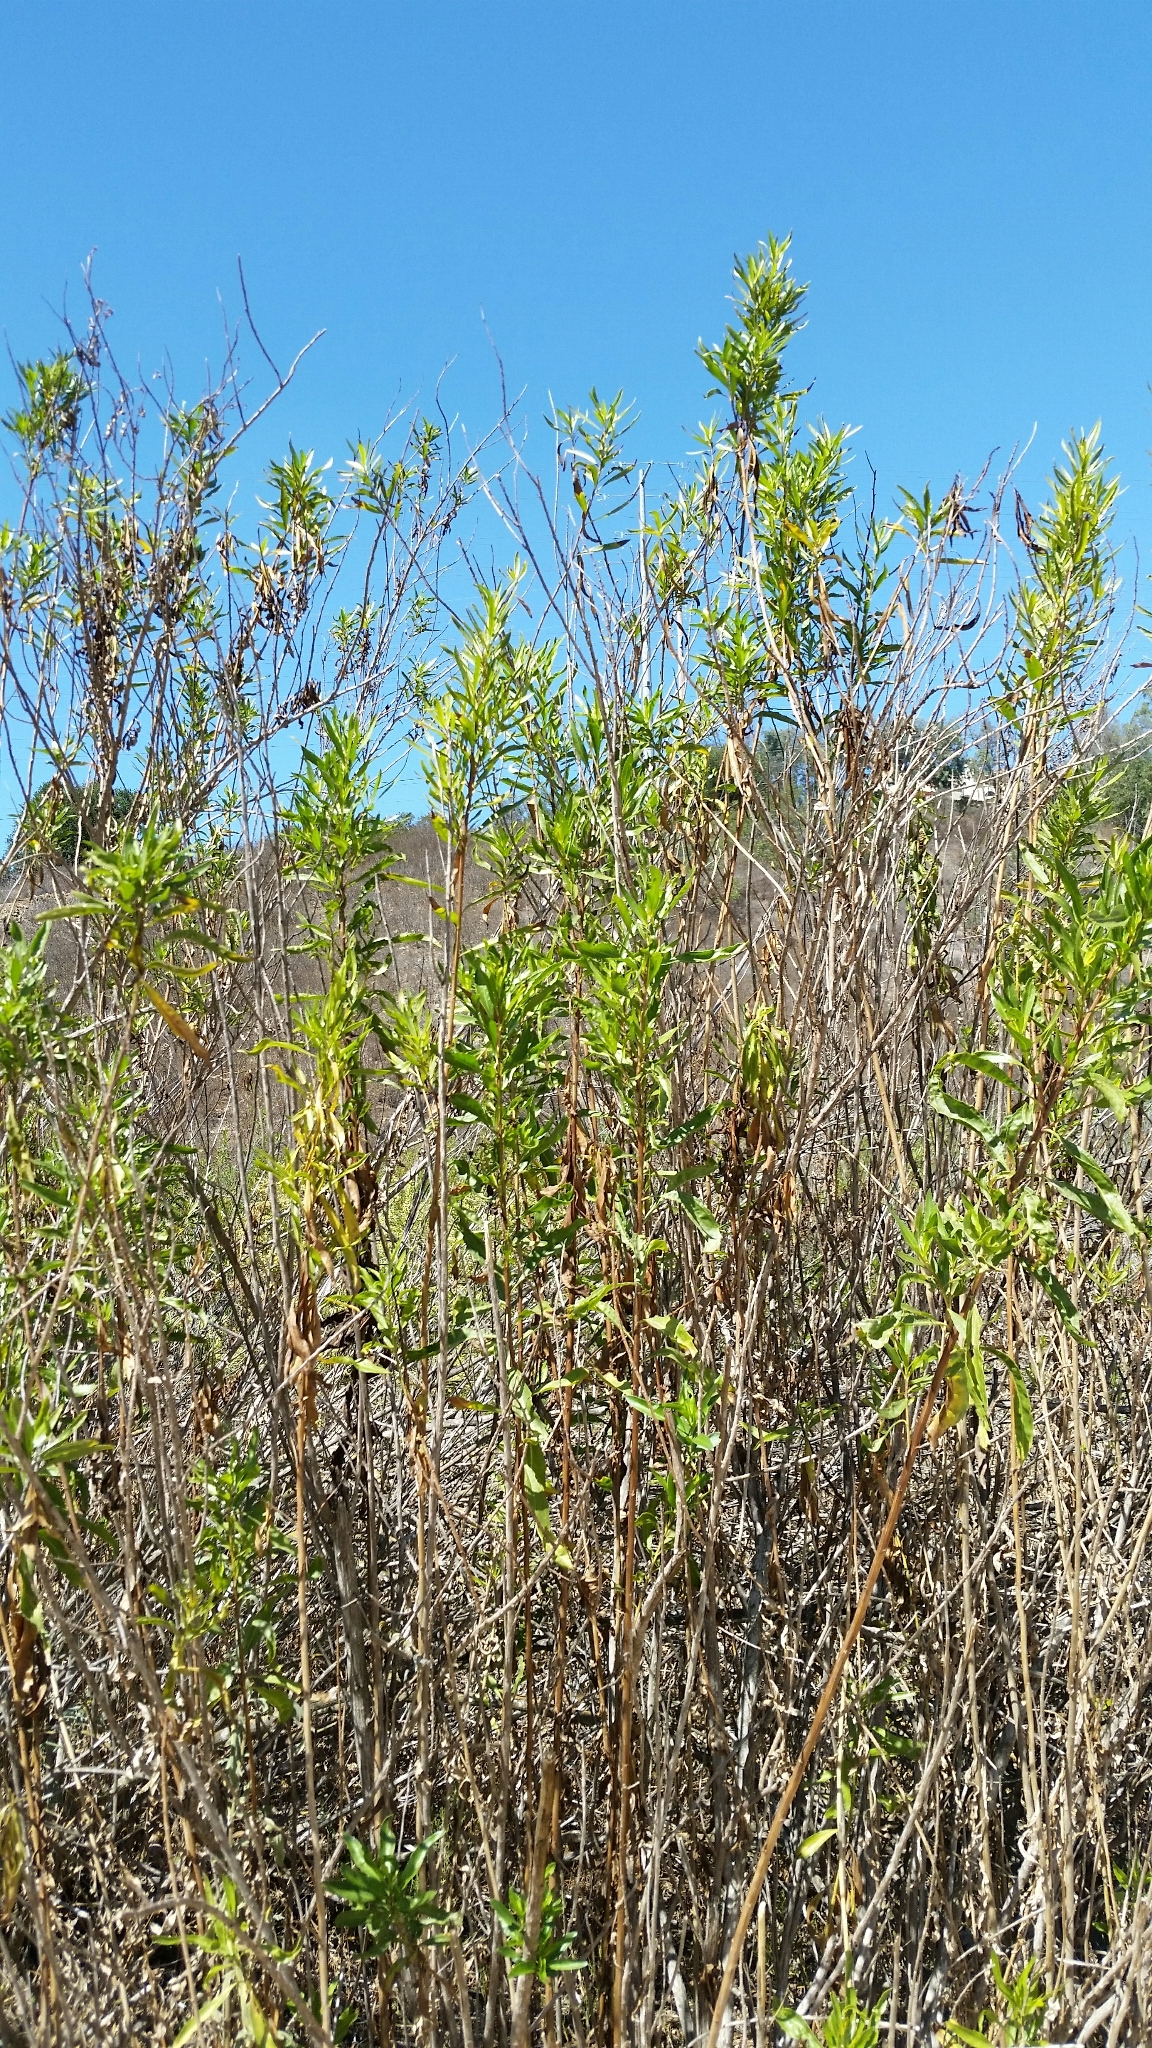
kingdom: Plantae
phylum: Tracheophyta
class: Magnoliopsida
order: Asterales
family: Asteraceae
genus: Baccharis
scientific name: Baccharis salicifolia
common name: Sticky baccharis
